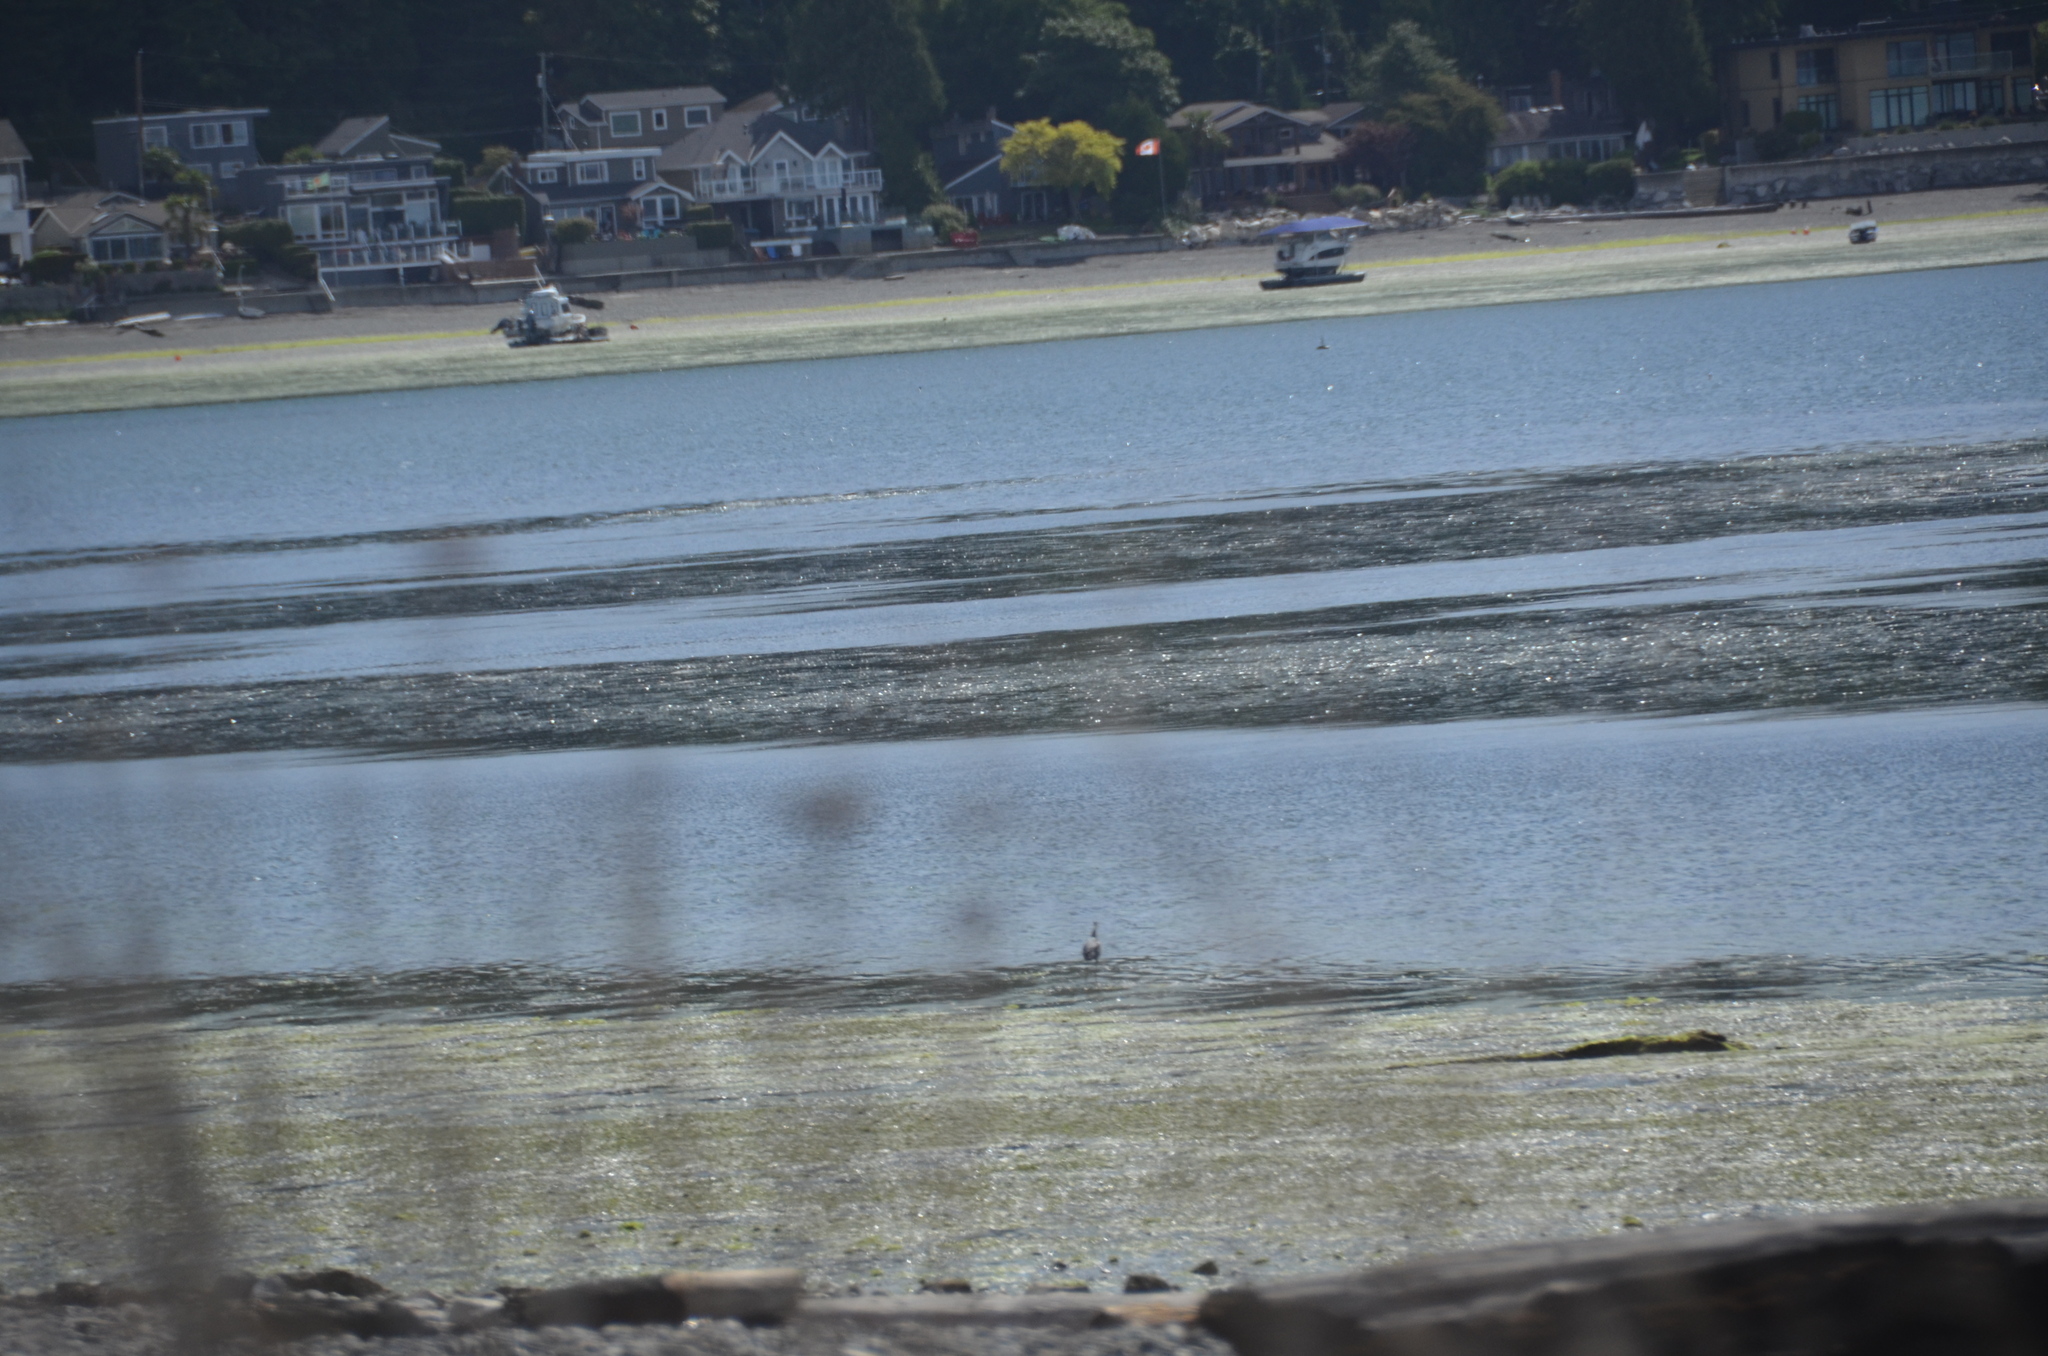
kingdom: Animalia
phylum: Chordata
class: Aves
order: Pelecaniformes
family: Ardeidae
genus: Ardea
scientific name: Ardea herodias
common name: Great blue heron
